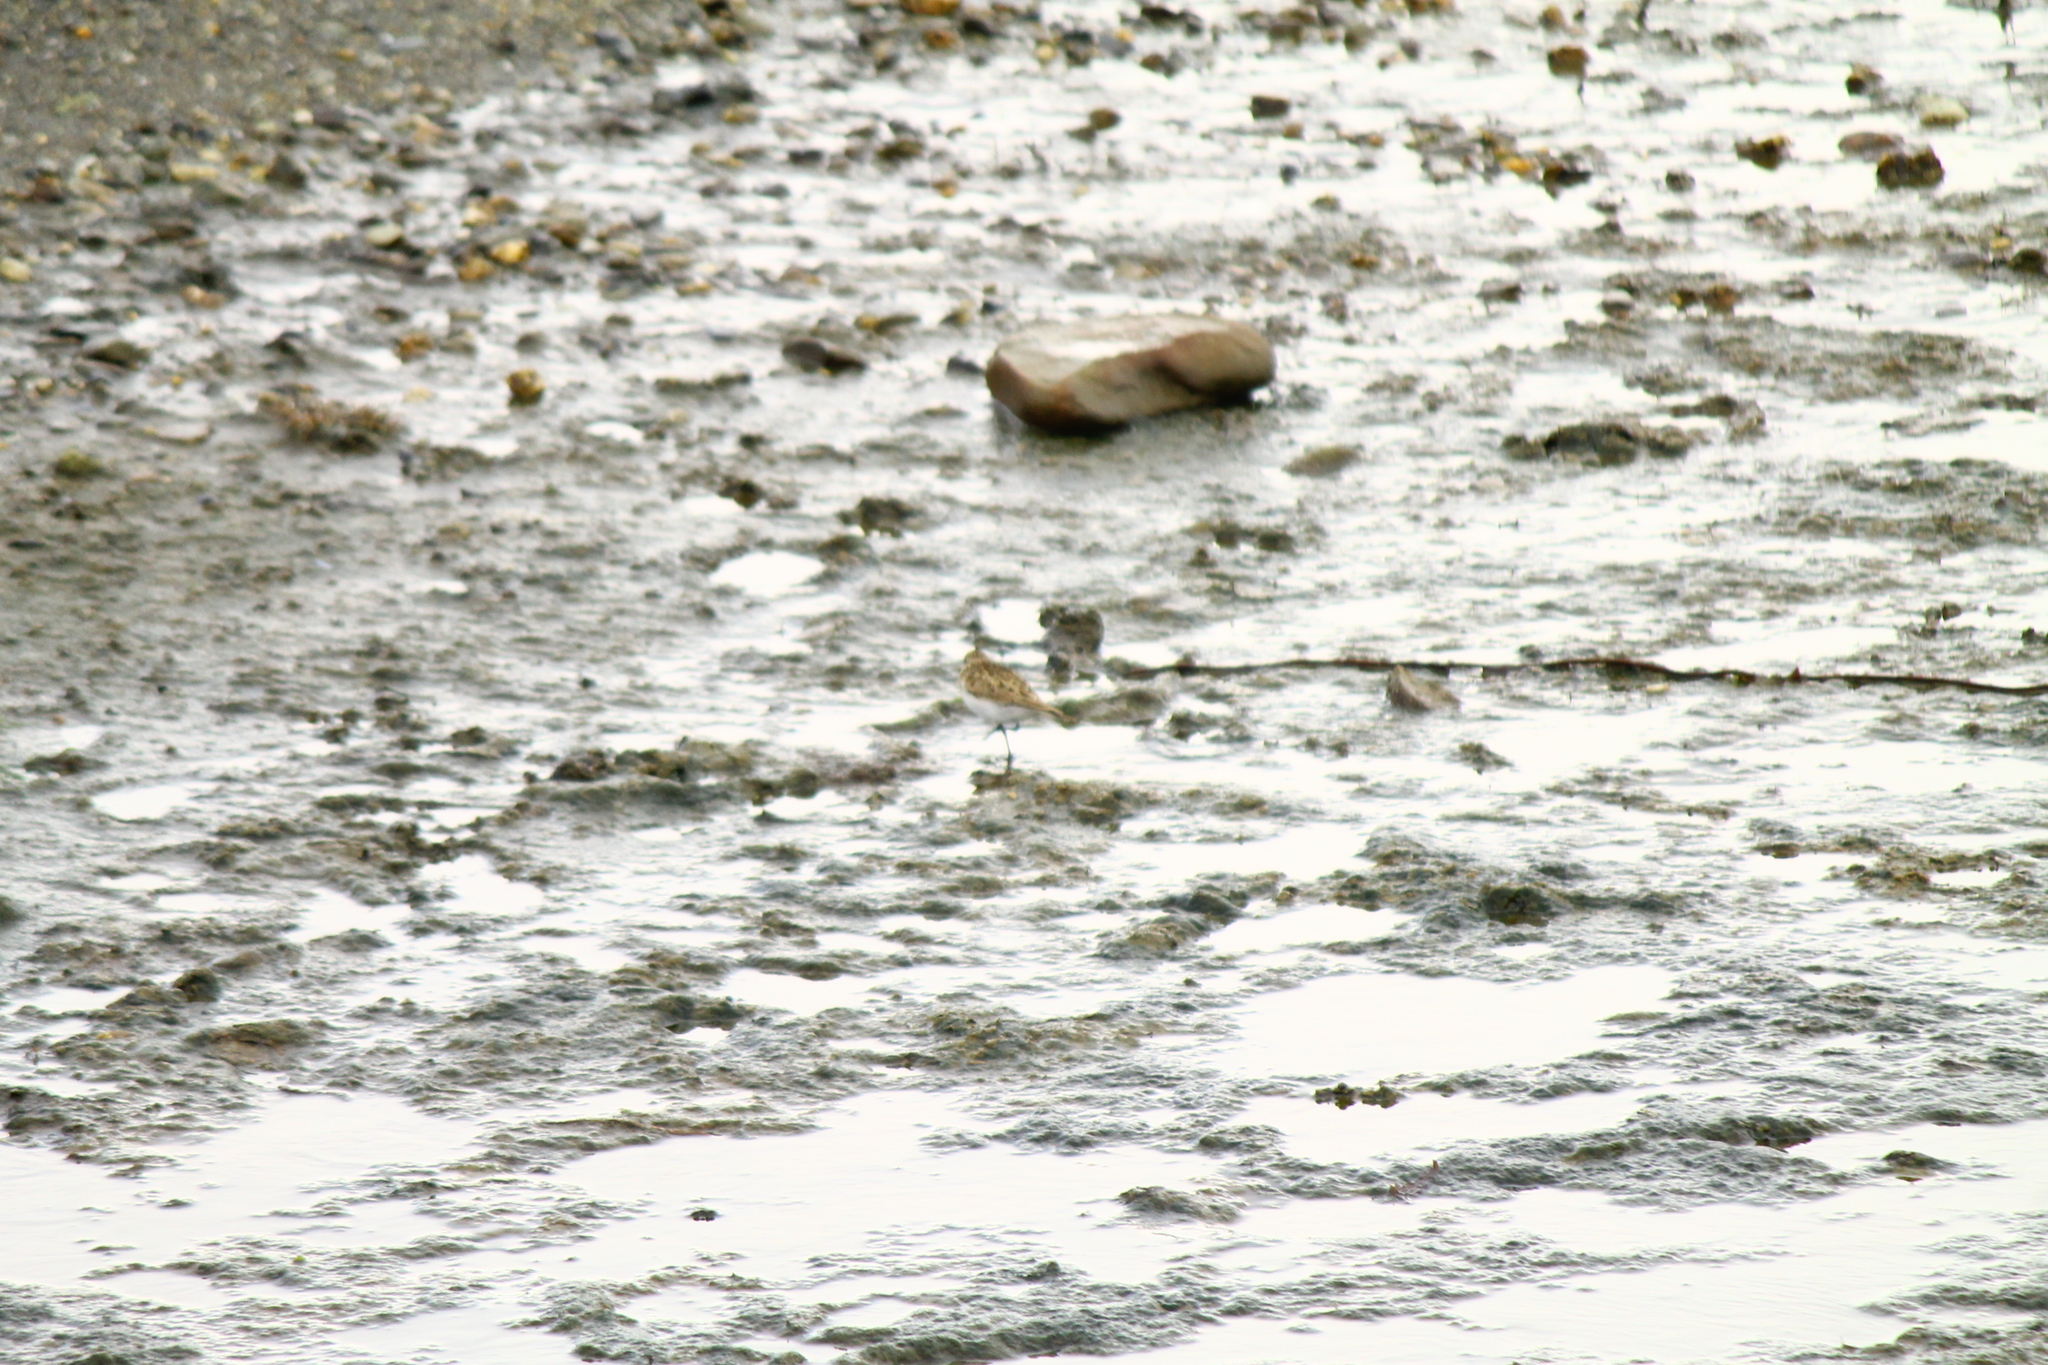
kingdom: Animalia
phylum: Chordata
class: Aves
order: Charadriiformes
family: Scolopacidae
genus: Calidris
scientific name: Calidris bairdii
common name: Baird's sandpiper
